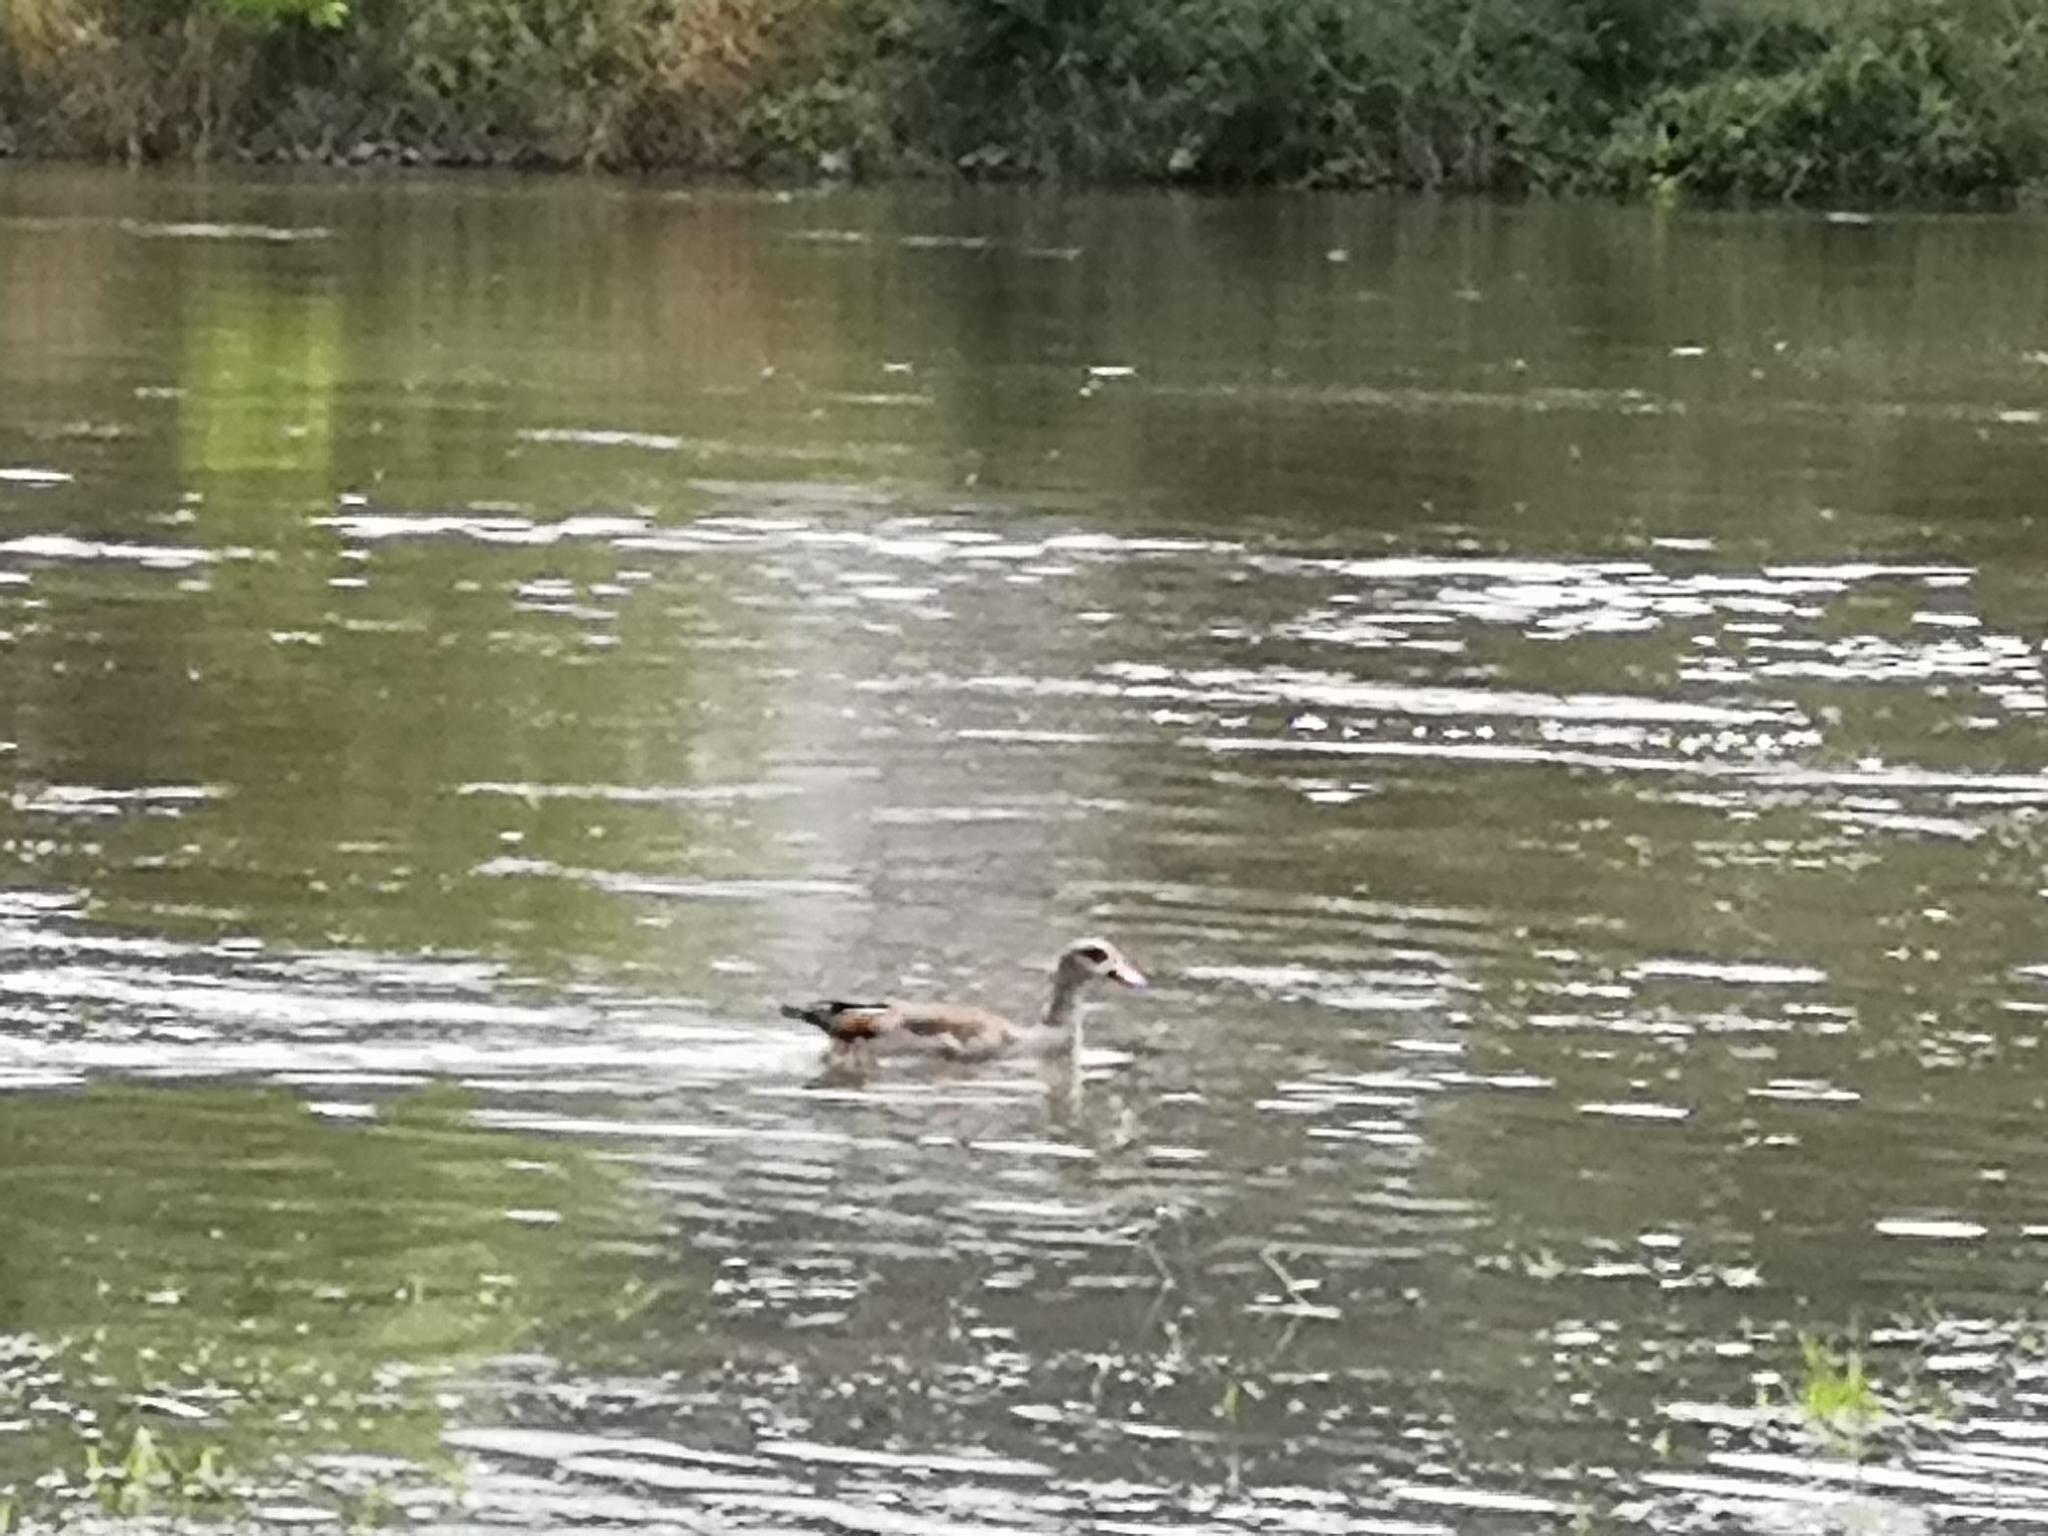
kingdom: Animalia
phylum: Chordata
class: Aves
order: Anseriformes
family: Anatidae
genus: Alopochen
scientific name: Alopochen aegyptiaca
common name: Egyptian goose
